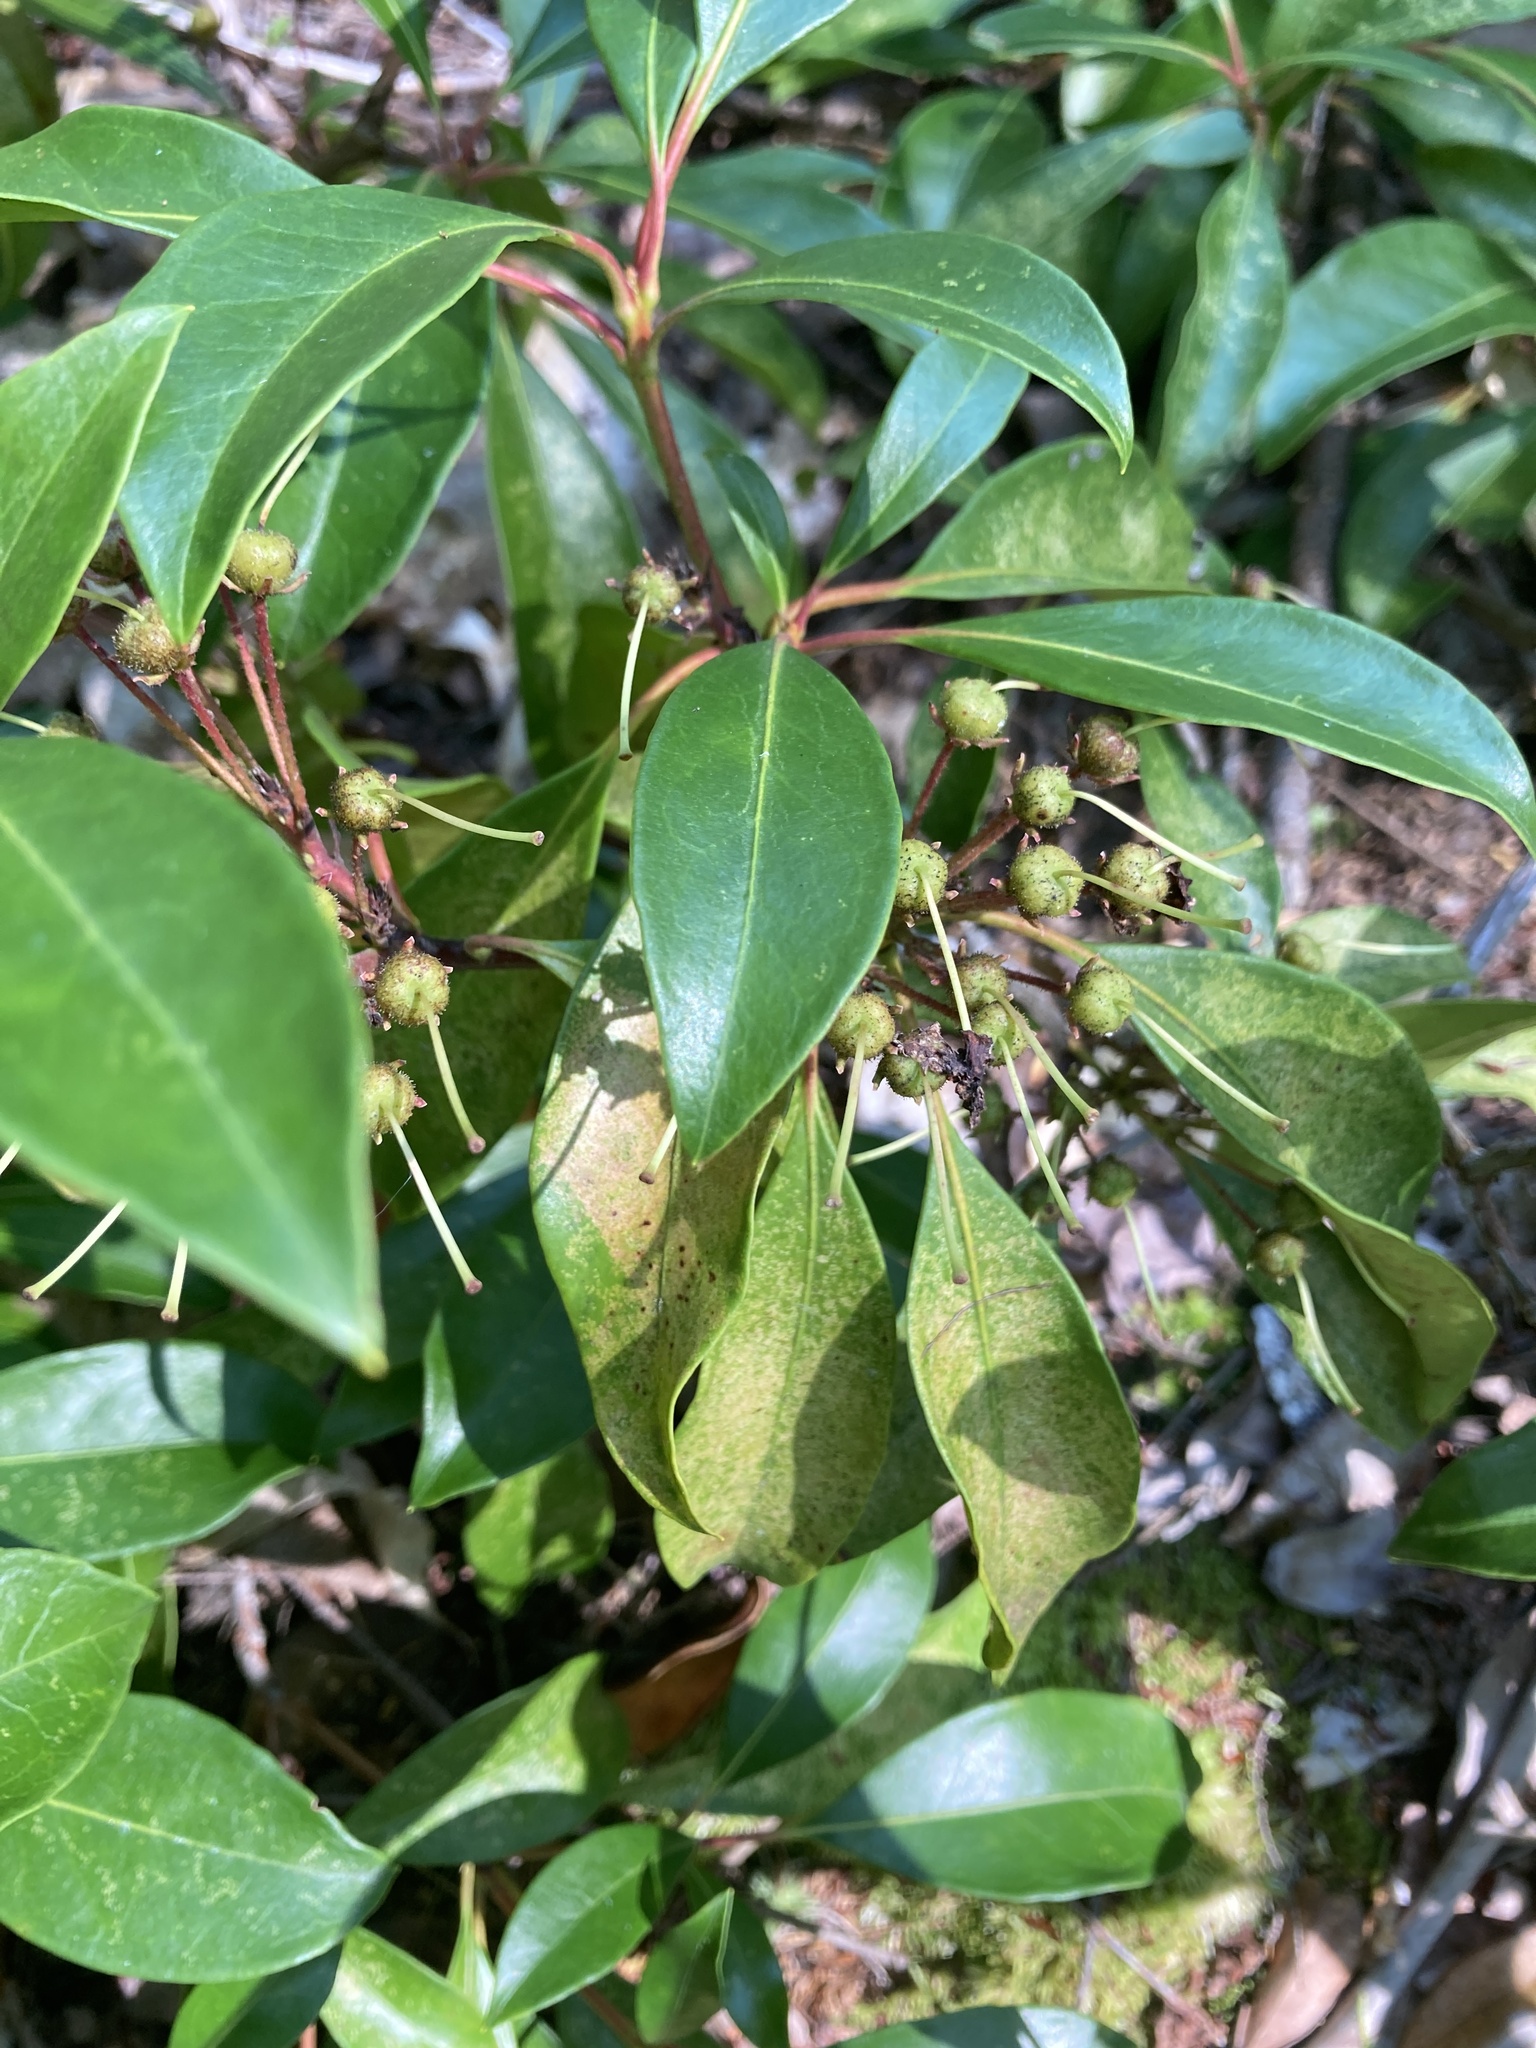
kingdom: Plantae
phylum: Tracheophyta
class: Magnoliopsida
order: Ericales
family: Ericaceae
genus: Kalmia
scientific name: Kalmia latifolia
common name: Mountain-laurel
